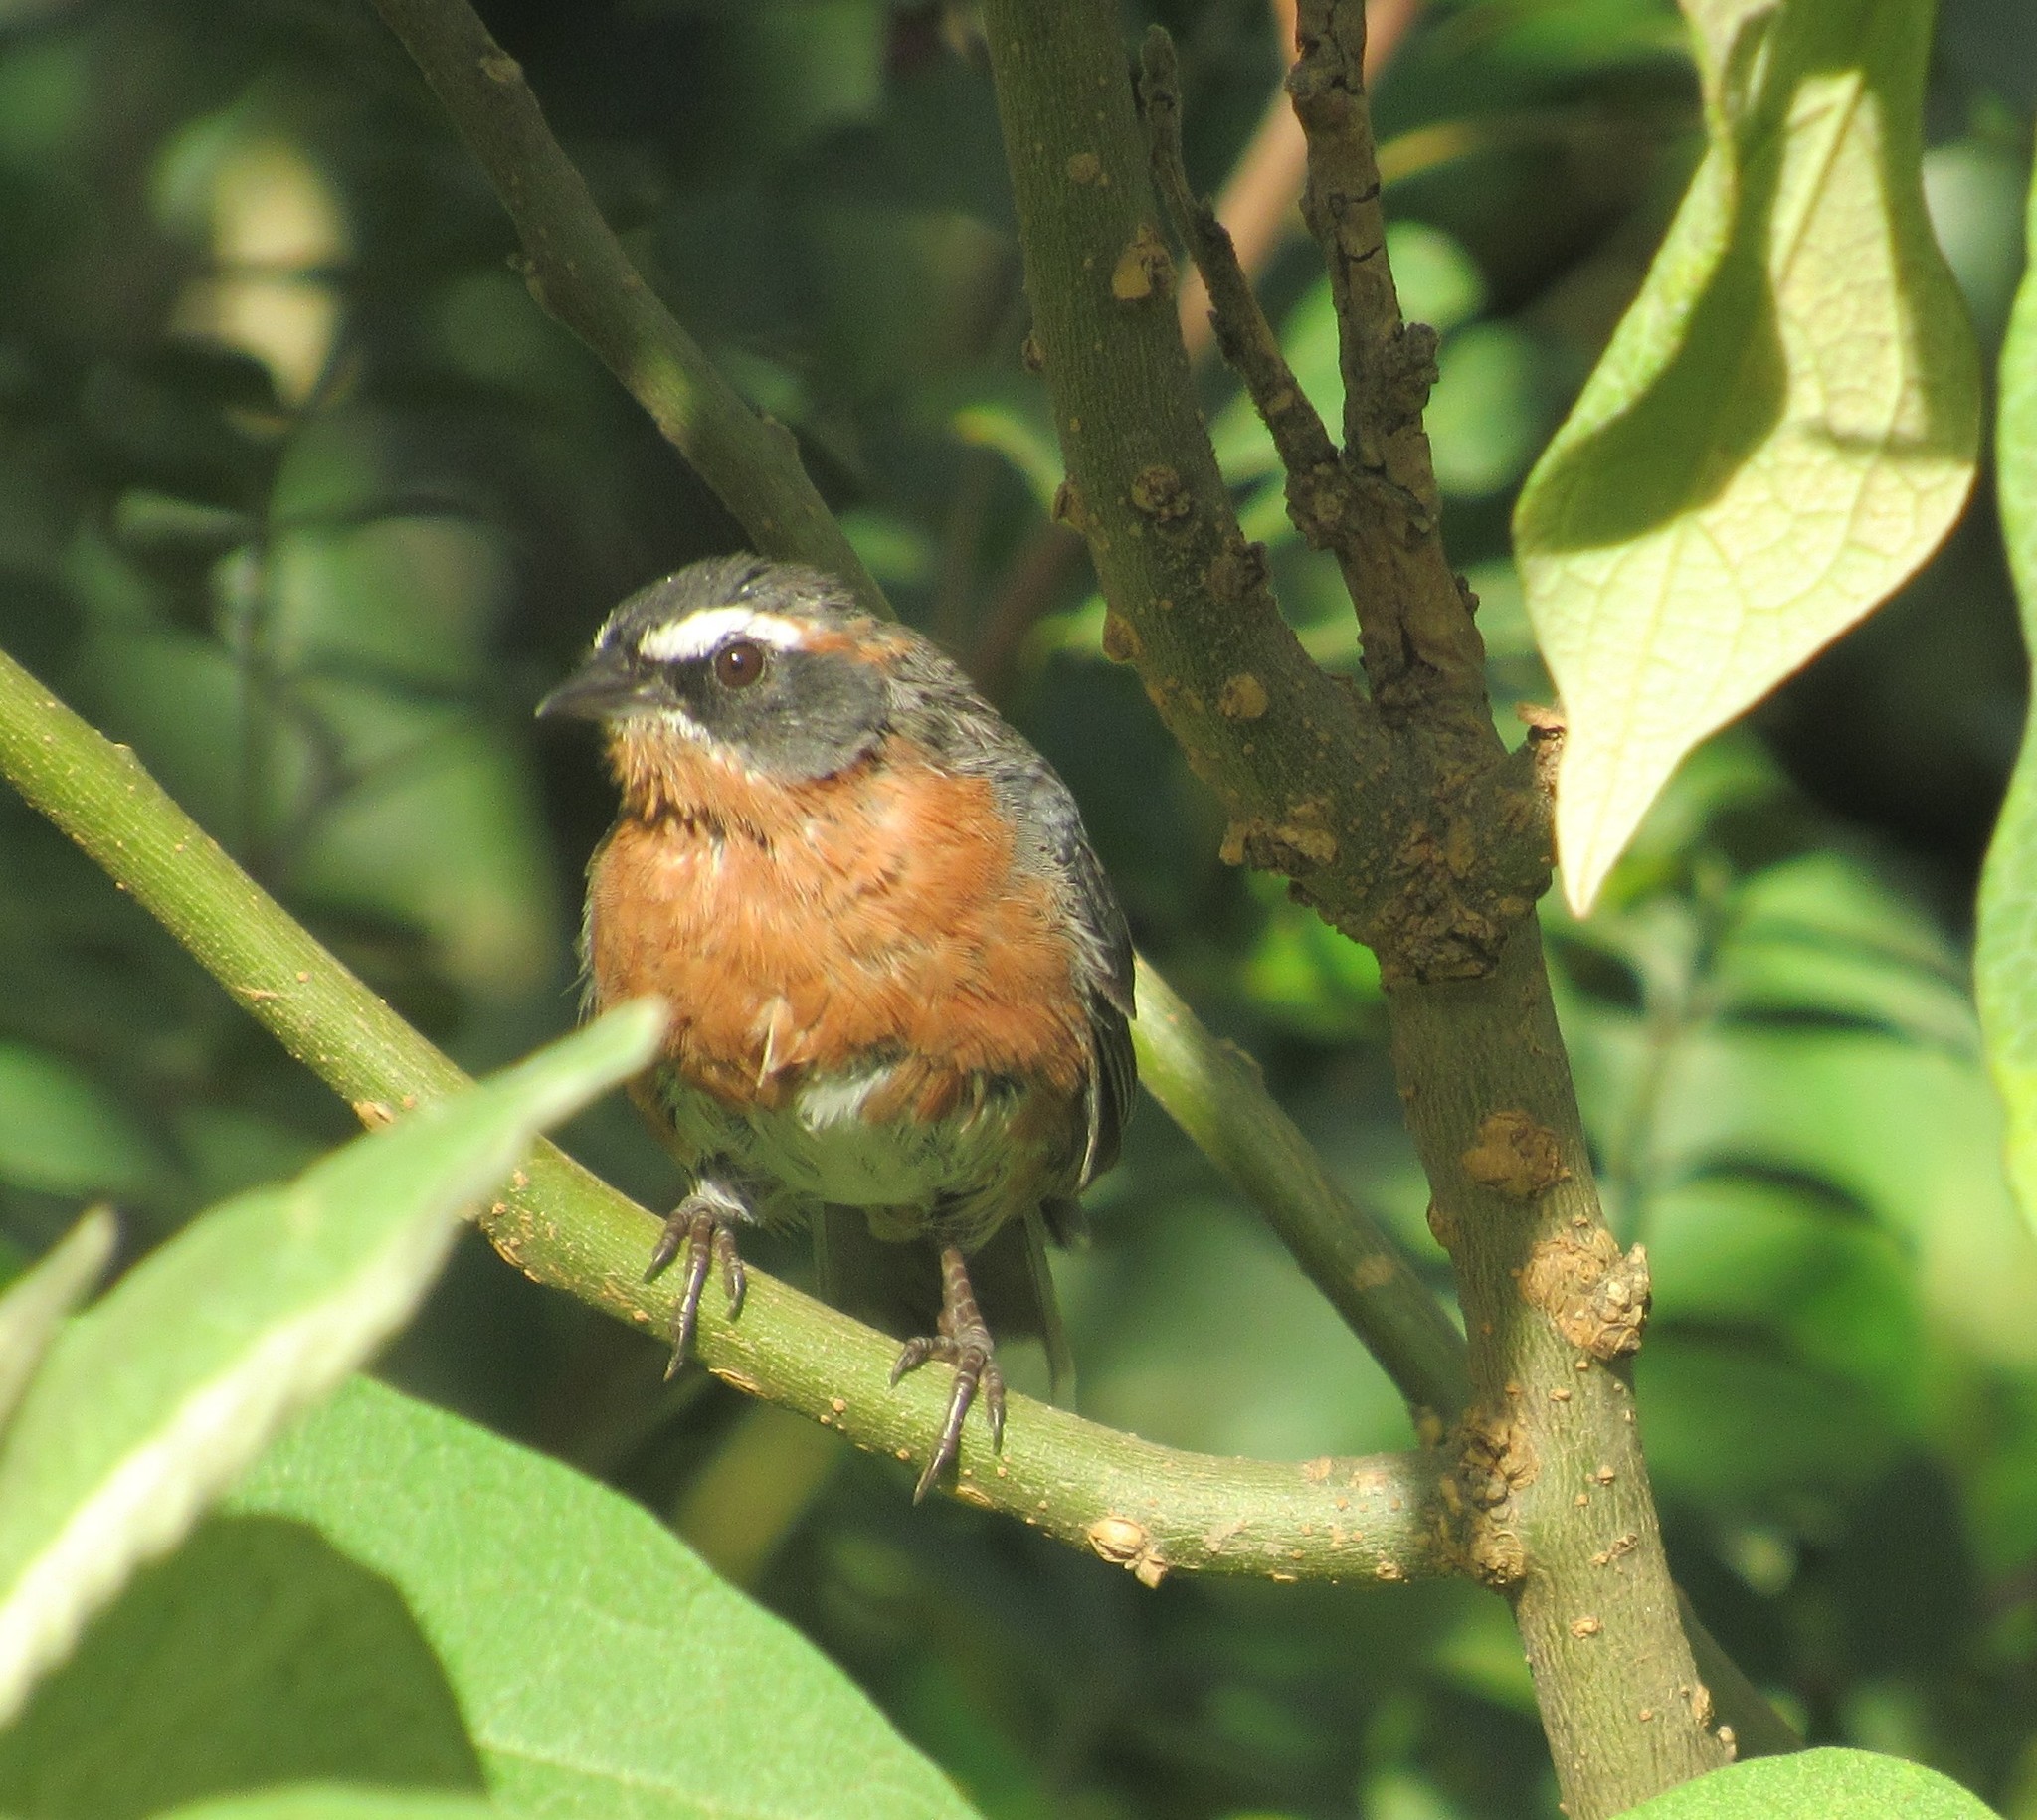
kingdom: Animalia
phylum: Chordata
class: Aves
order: Passeriformes
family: Thraupidae
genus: Poospiza
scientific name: Poospiza nigrorufa
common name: Black-and-rufous warbling finch
